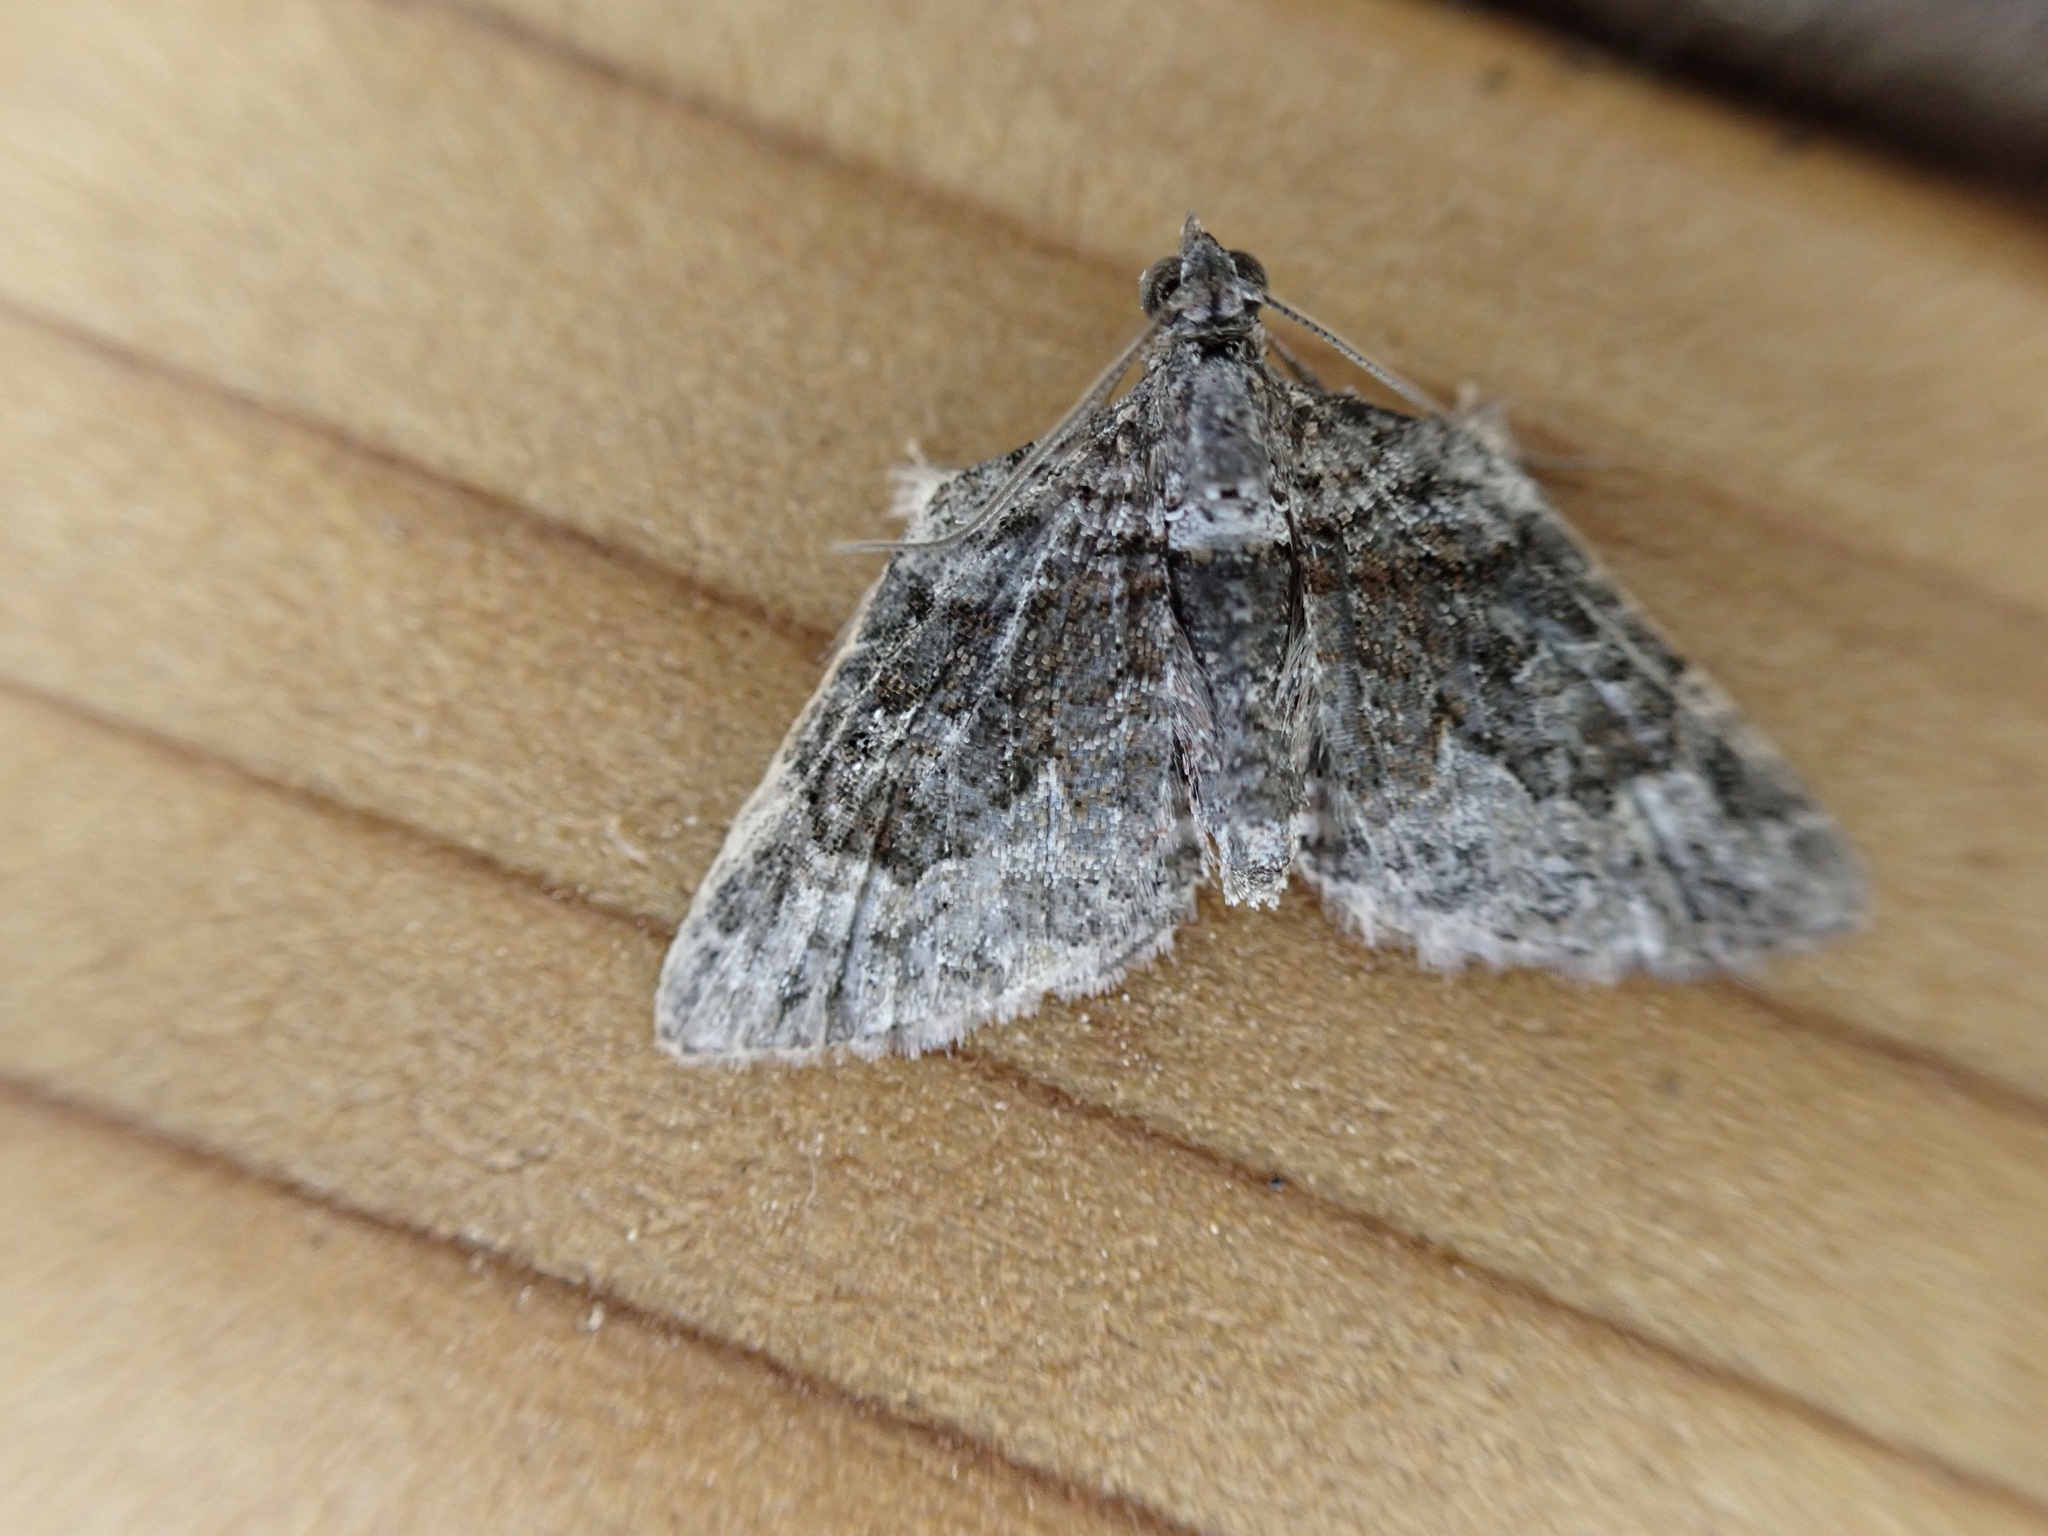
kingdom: Animalia
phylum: Arthropoda
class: Insecta
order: Lepidoptera
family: Geometridae
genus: Phrissogonus
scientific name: Phrissogonus laticostata
